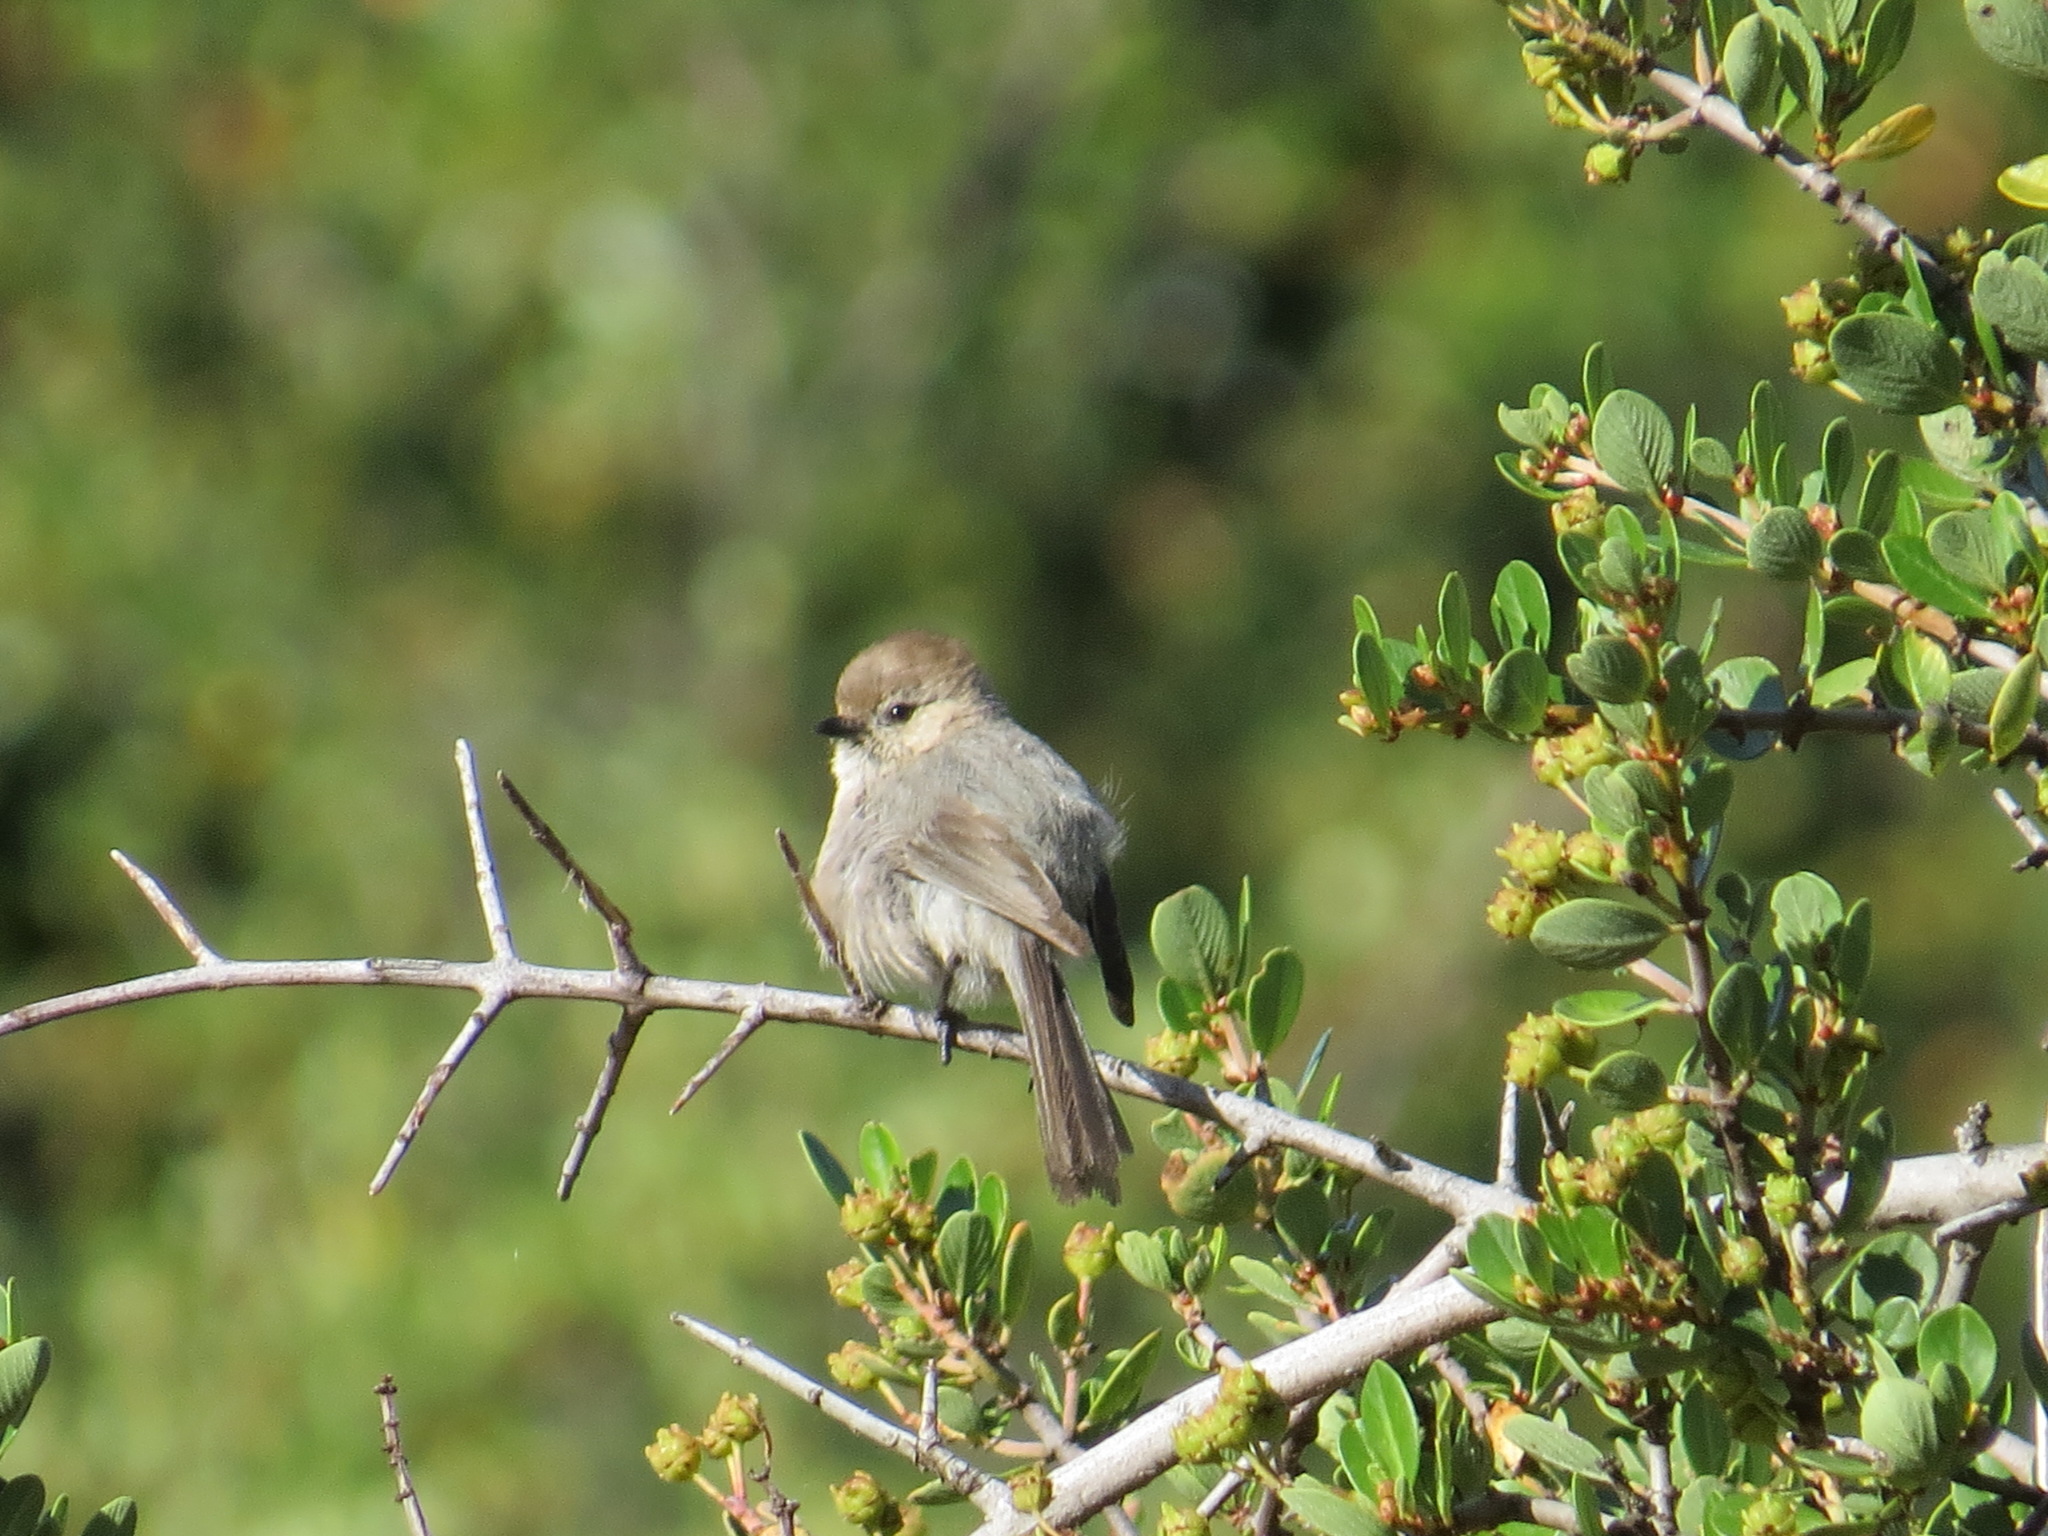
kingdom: Animalia
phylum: Chordata
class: Aves
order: Passeriformes
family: Aegithalidae
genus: Psaltriparus
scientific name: Psaltriparus minimus
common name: American bushtit
